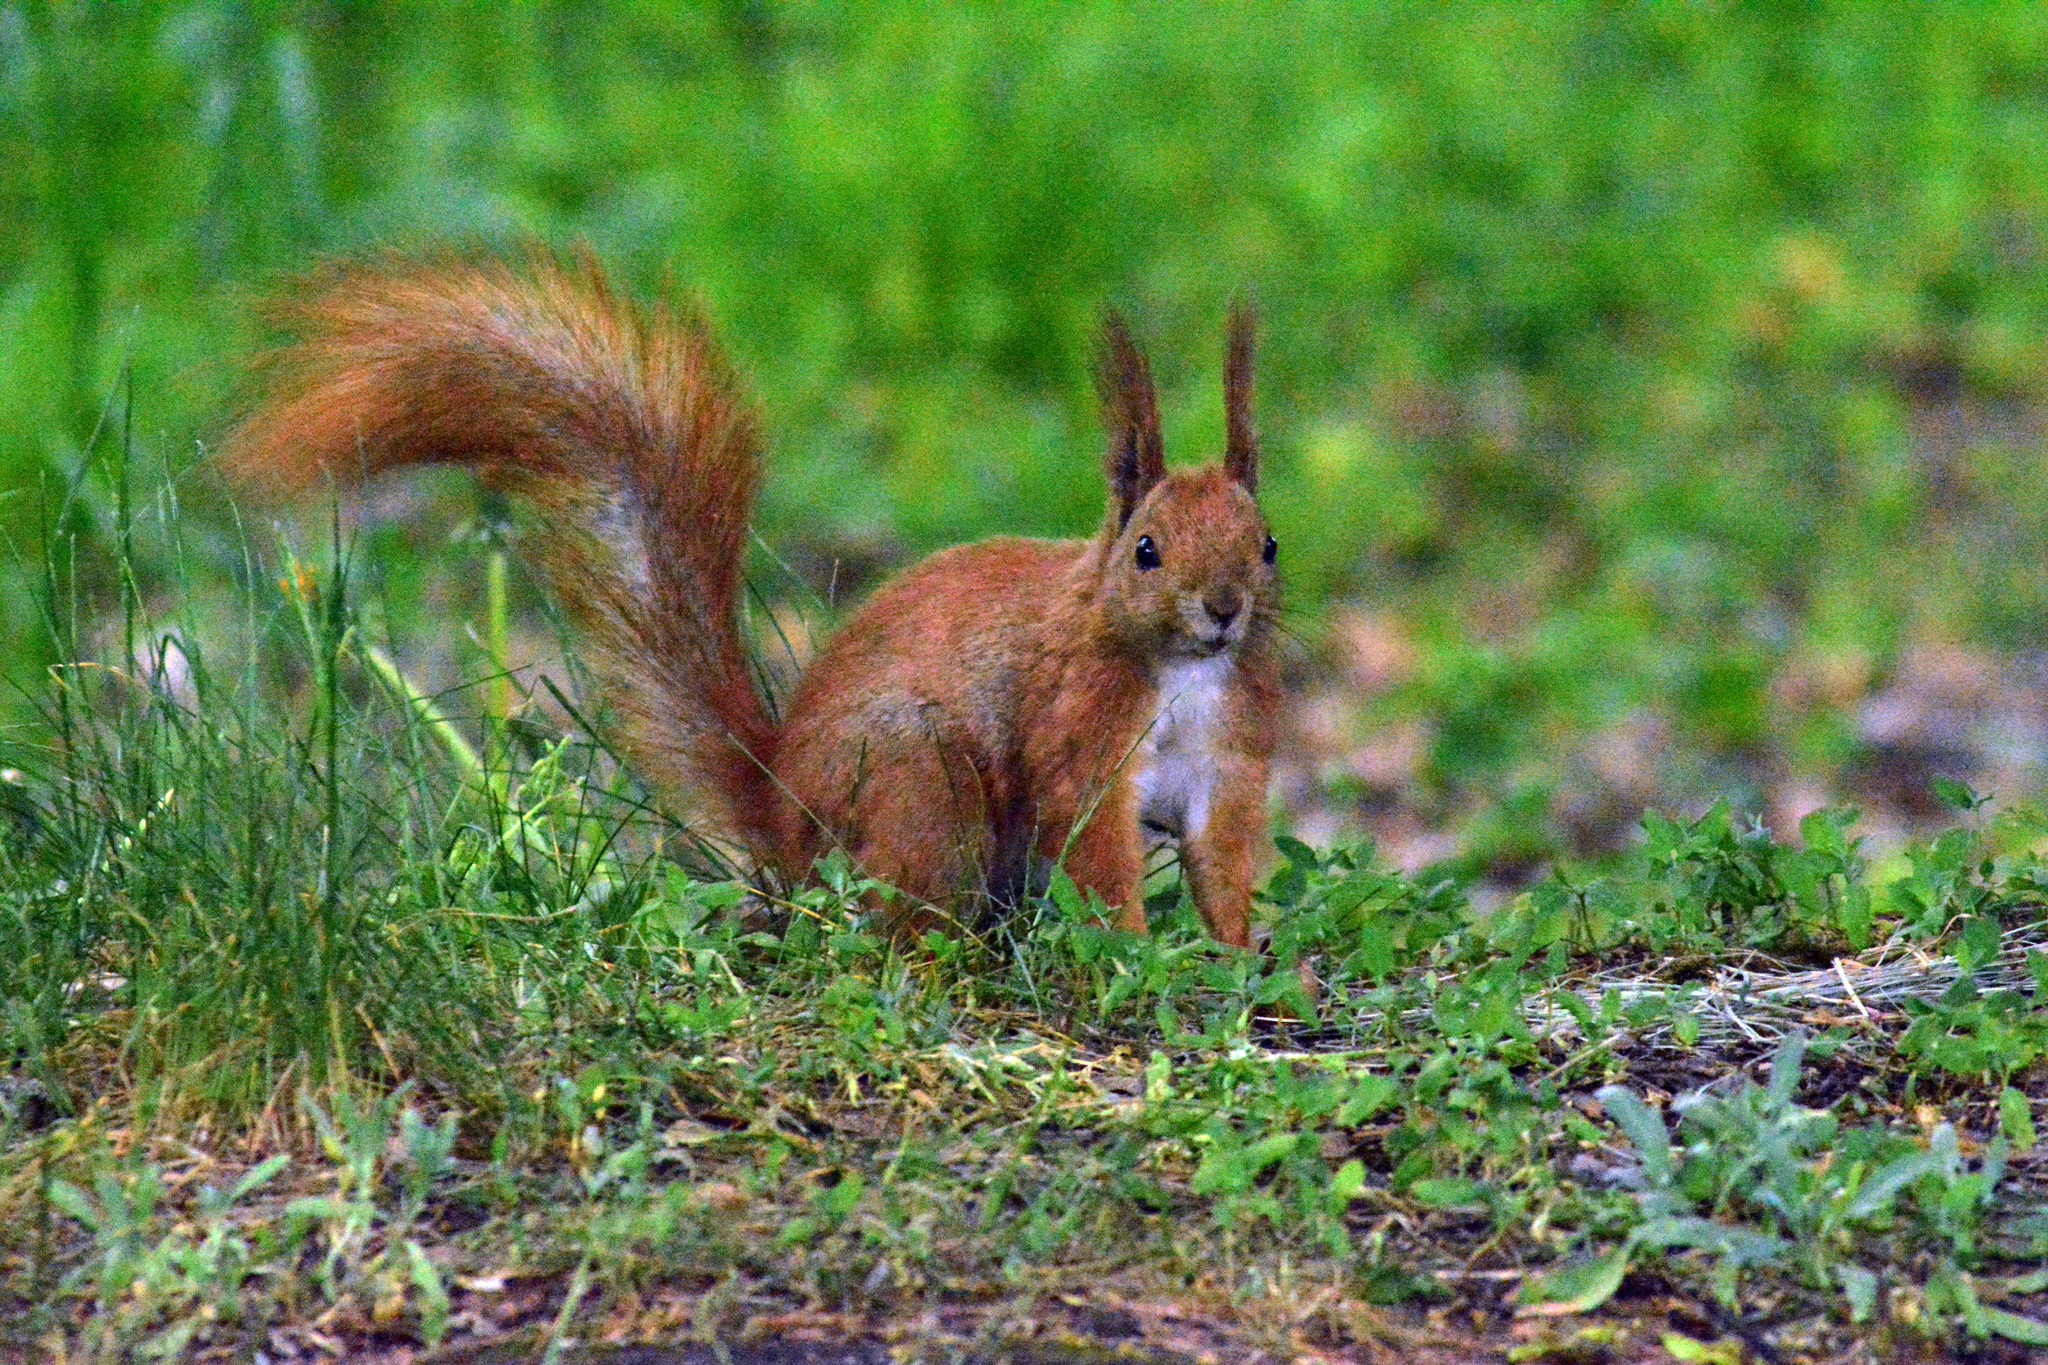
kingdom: Animalia
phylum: Chordata
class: Mammalia
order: Rodentia
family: Sciuridae
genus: Sciurus
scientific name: Sciurus vulgaris
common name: Eurasian red squirrel
